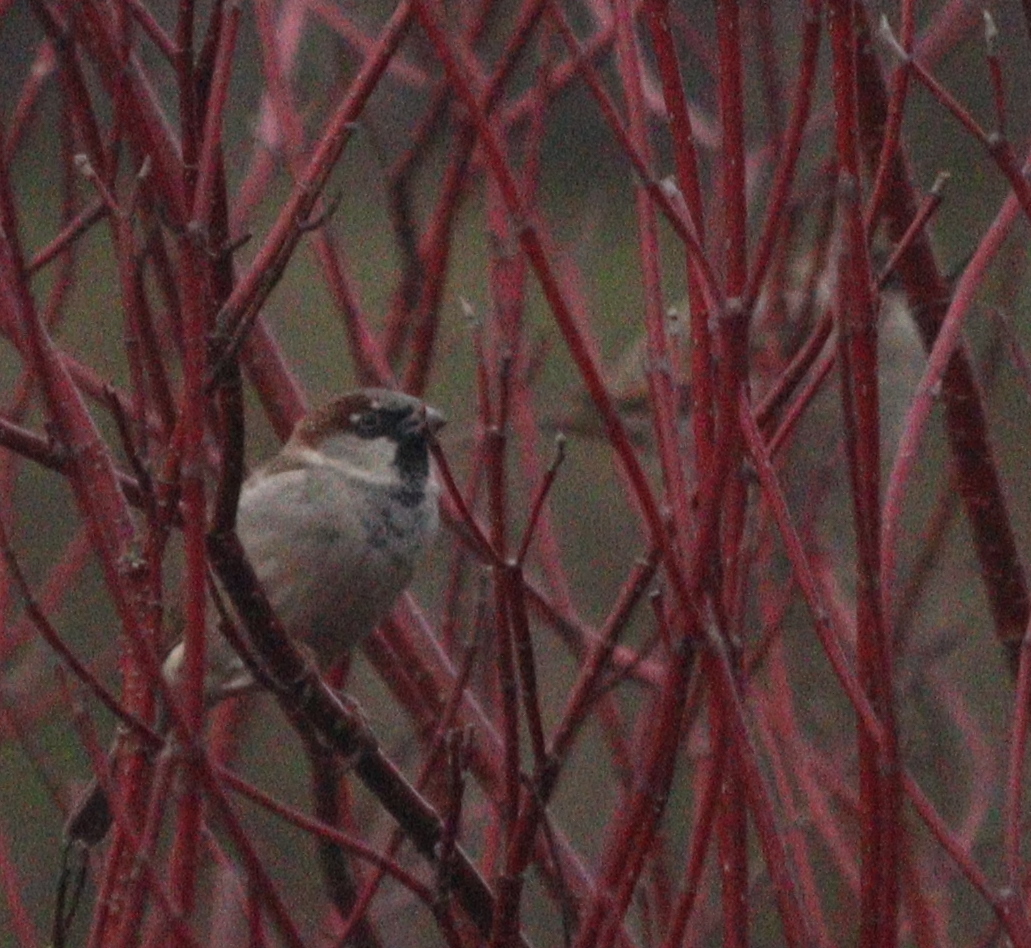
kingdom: Animalia
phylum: Chordata
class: Aves
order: Passeriformes
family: Passeridae
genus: Passer
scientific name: Passer domesticus
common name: House sparrow
